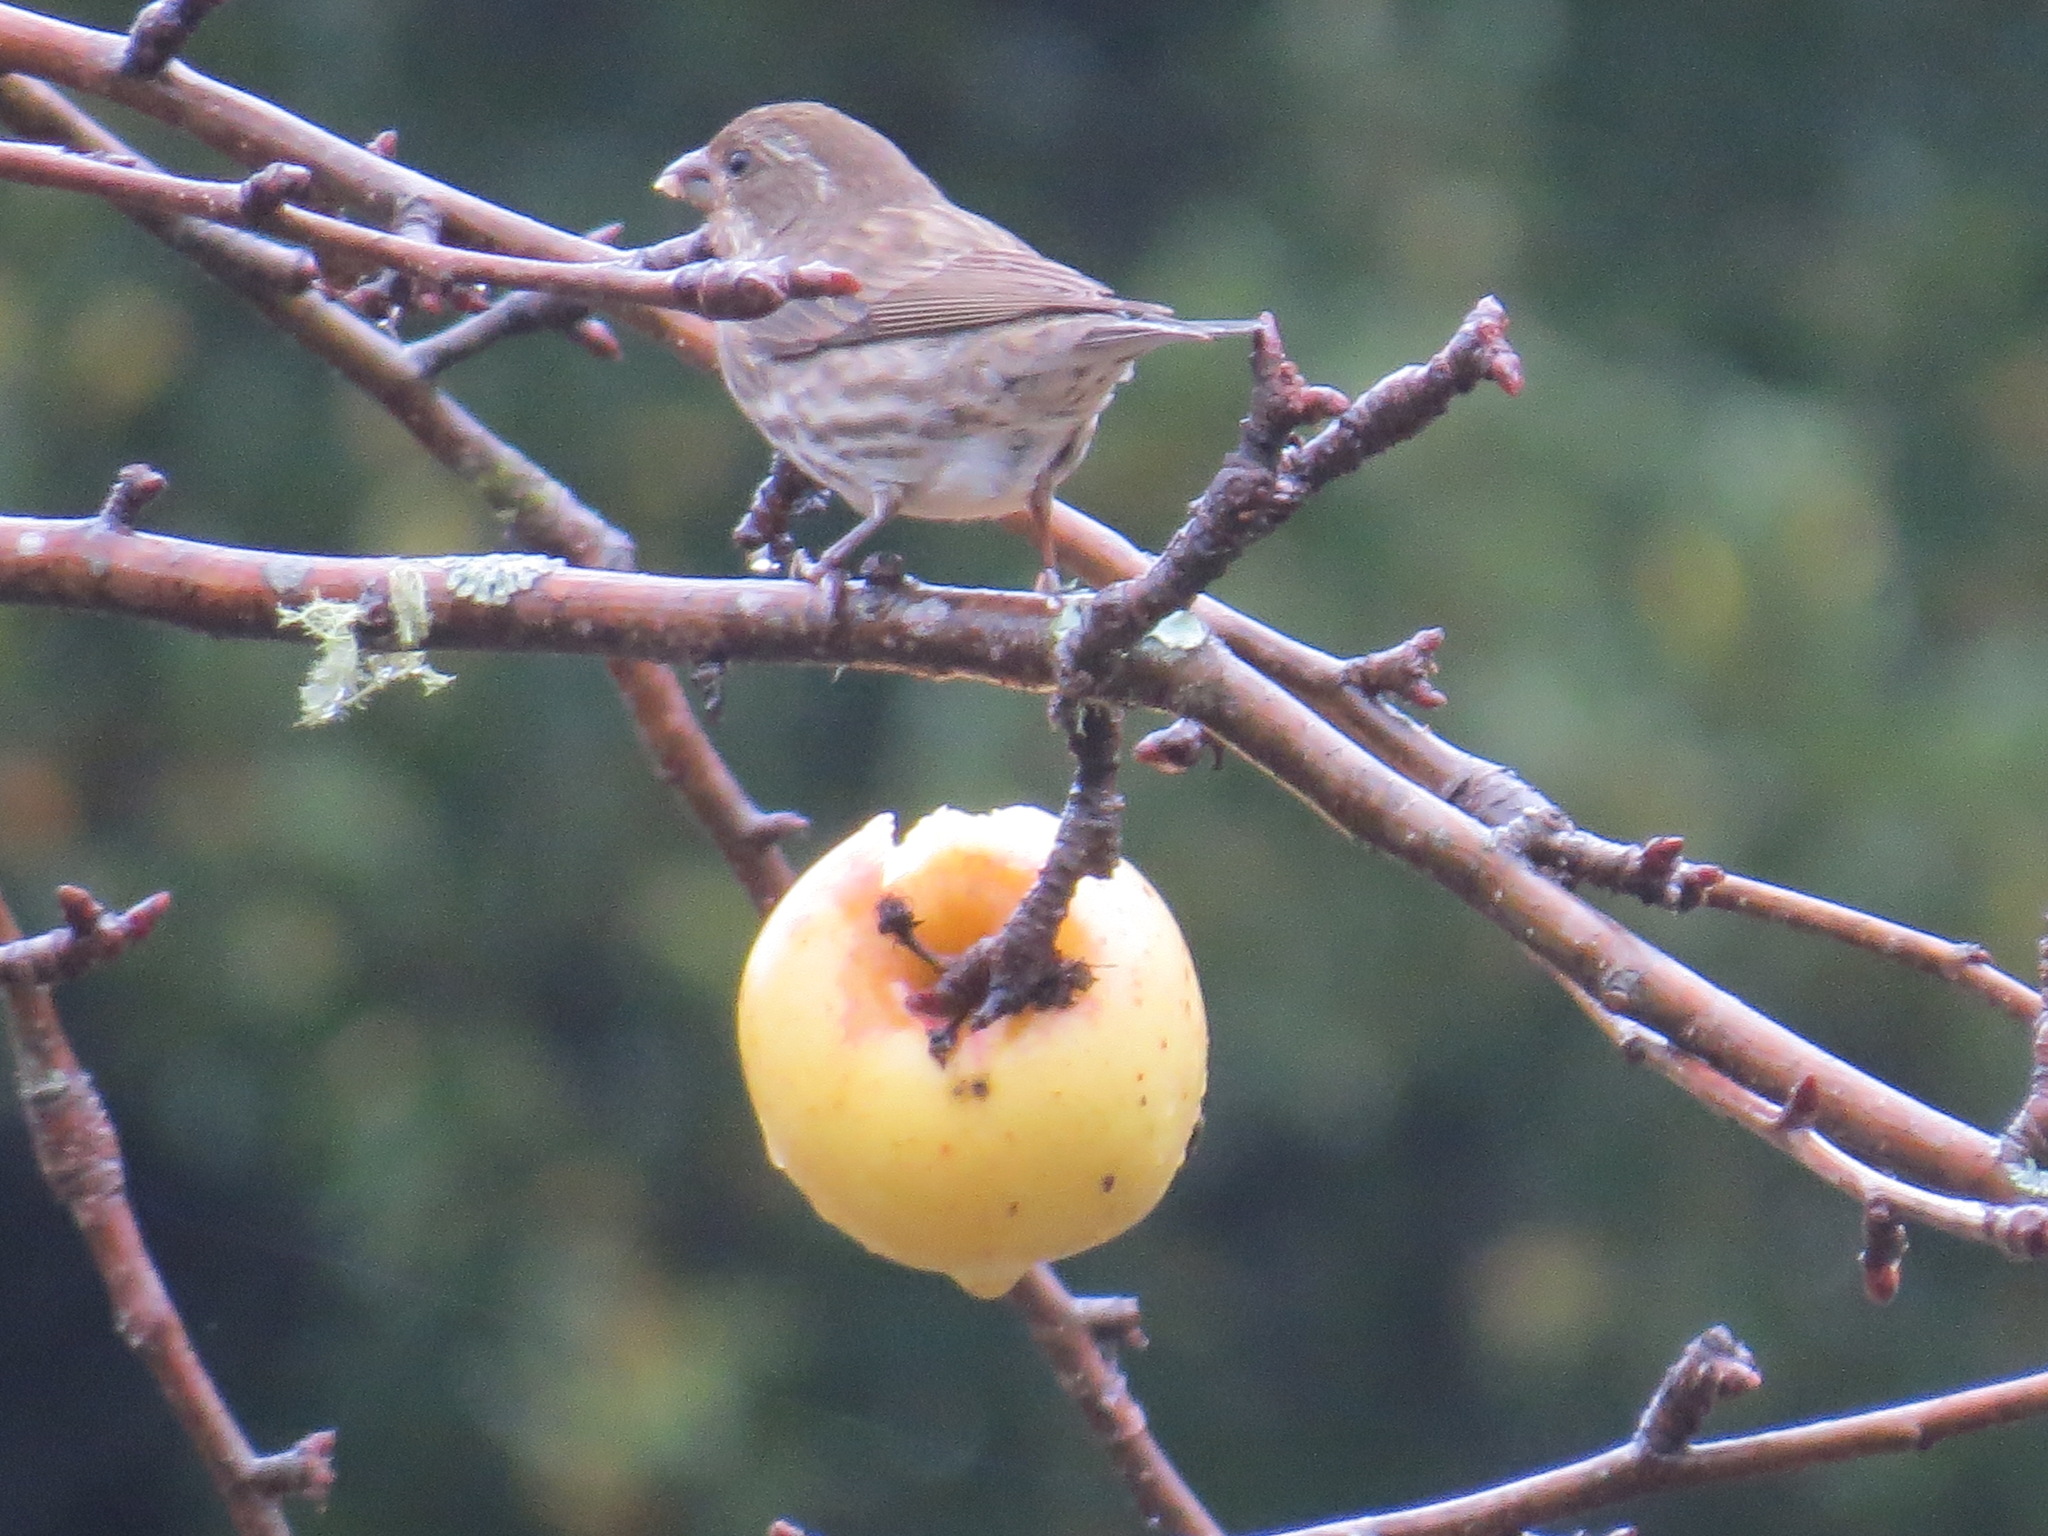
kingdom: Animalia
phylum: Chordata
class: Aves
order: Passeriformes
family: Fringillidae
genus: Haemorhous
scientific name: Haemorhous purpureus
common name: Purple finch
